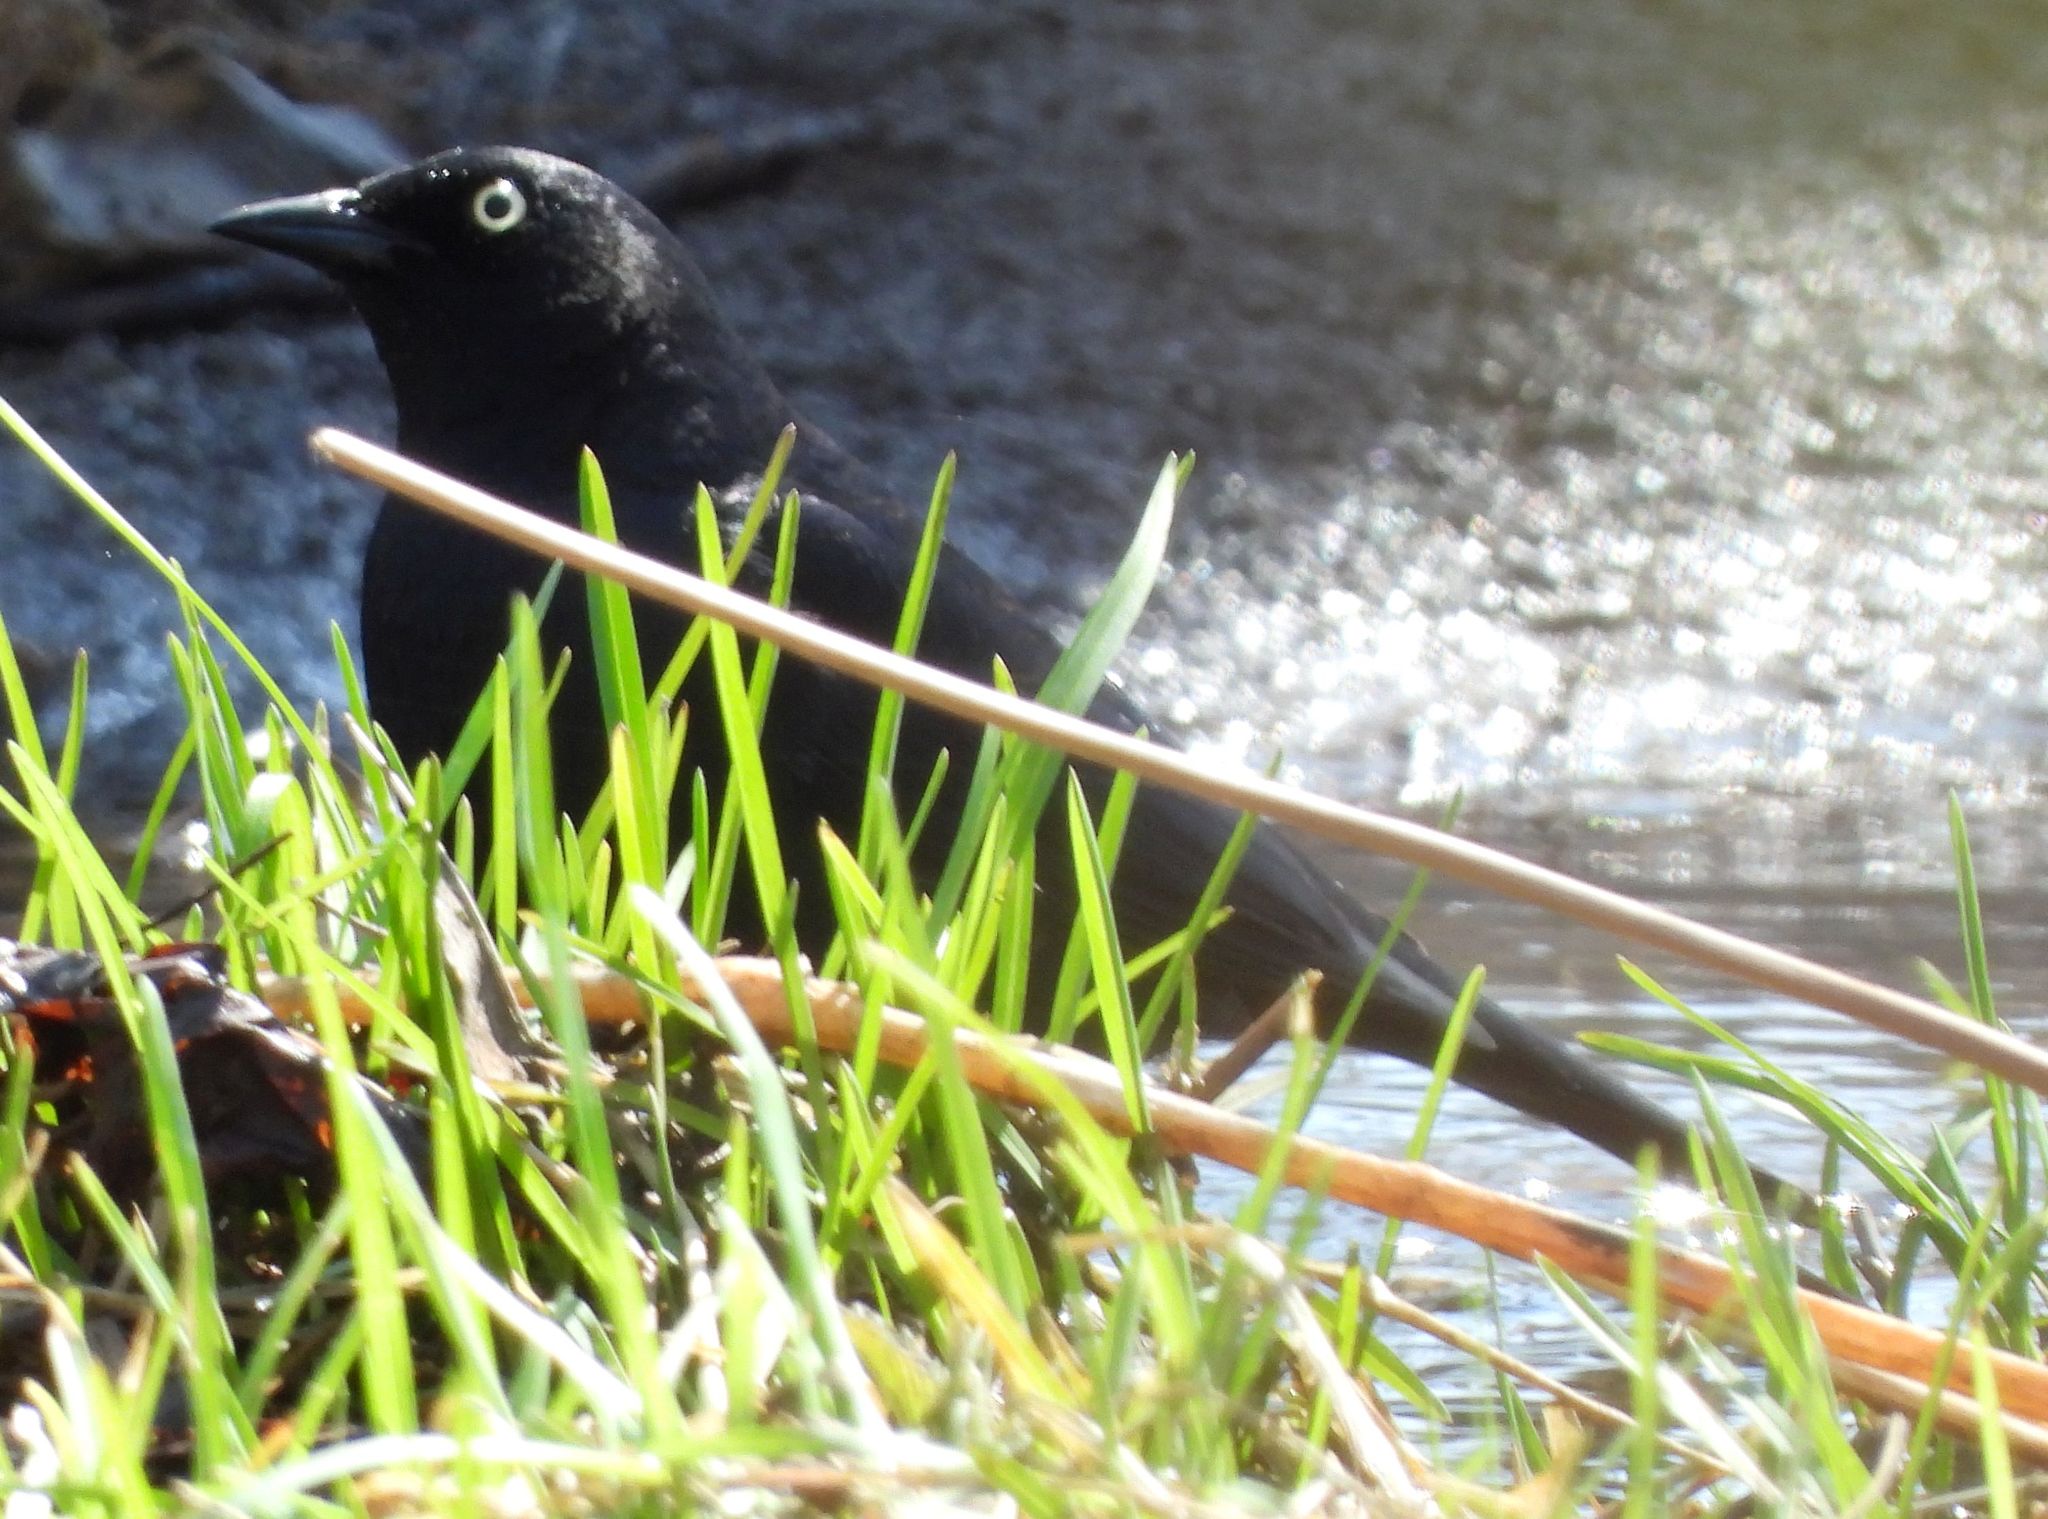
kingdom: Animalia
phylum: Chordata
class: Aves
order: Passeriformes
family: Icteridae
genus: Euphagus
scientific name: Euphagus carolinus
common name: Rusty blackbird
